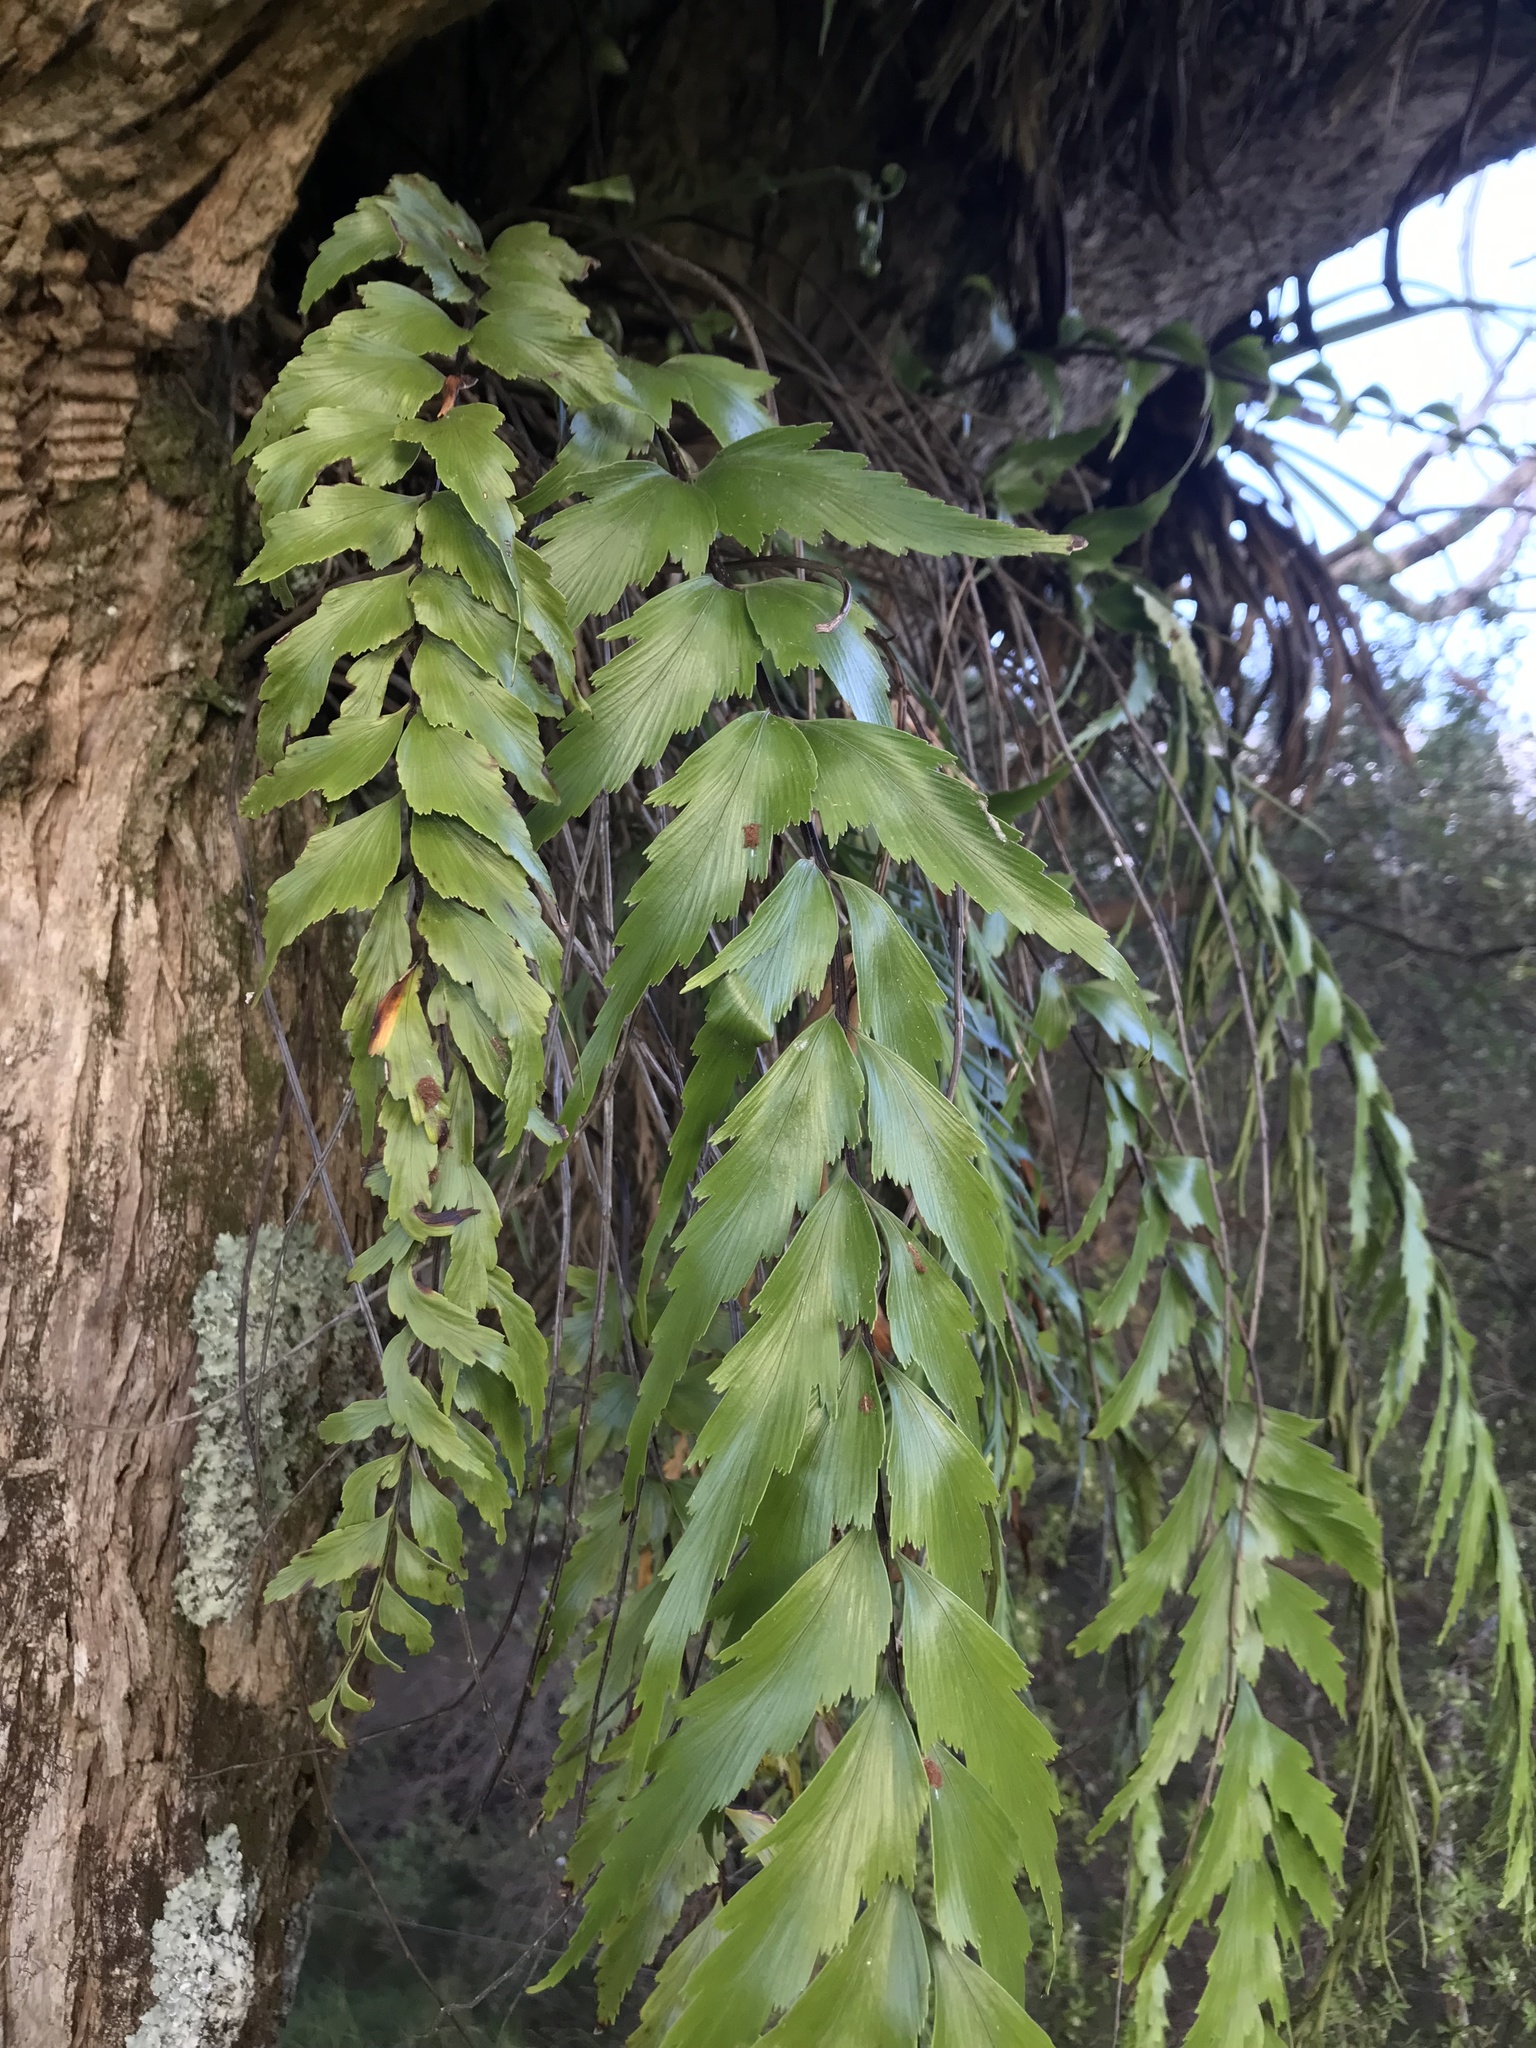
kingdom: Plantae
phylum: Tracheophyta
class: Polypodiopsida
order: Polypodiales
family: Aspleniaceae
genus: Asplenium
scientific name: Asplenium polyodon
